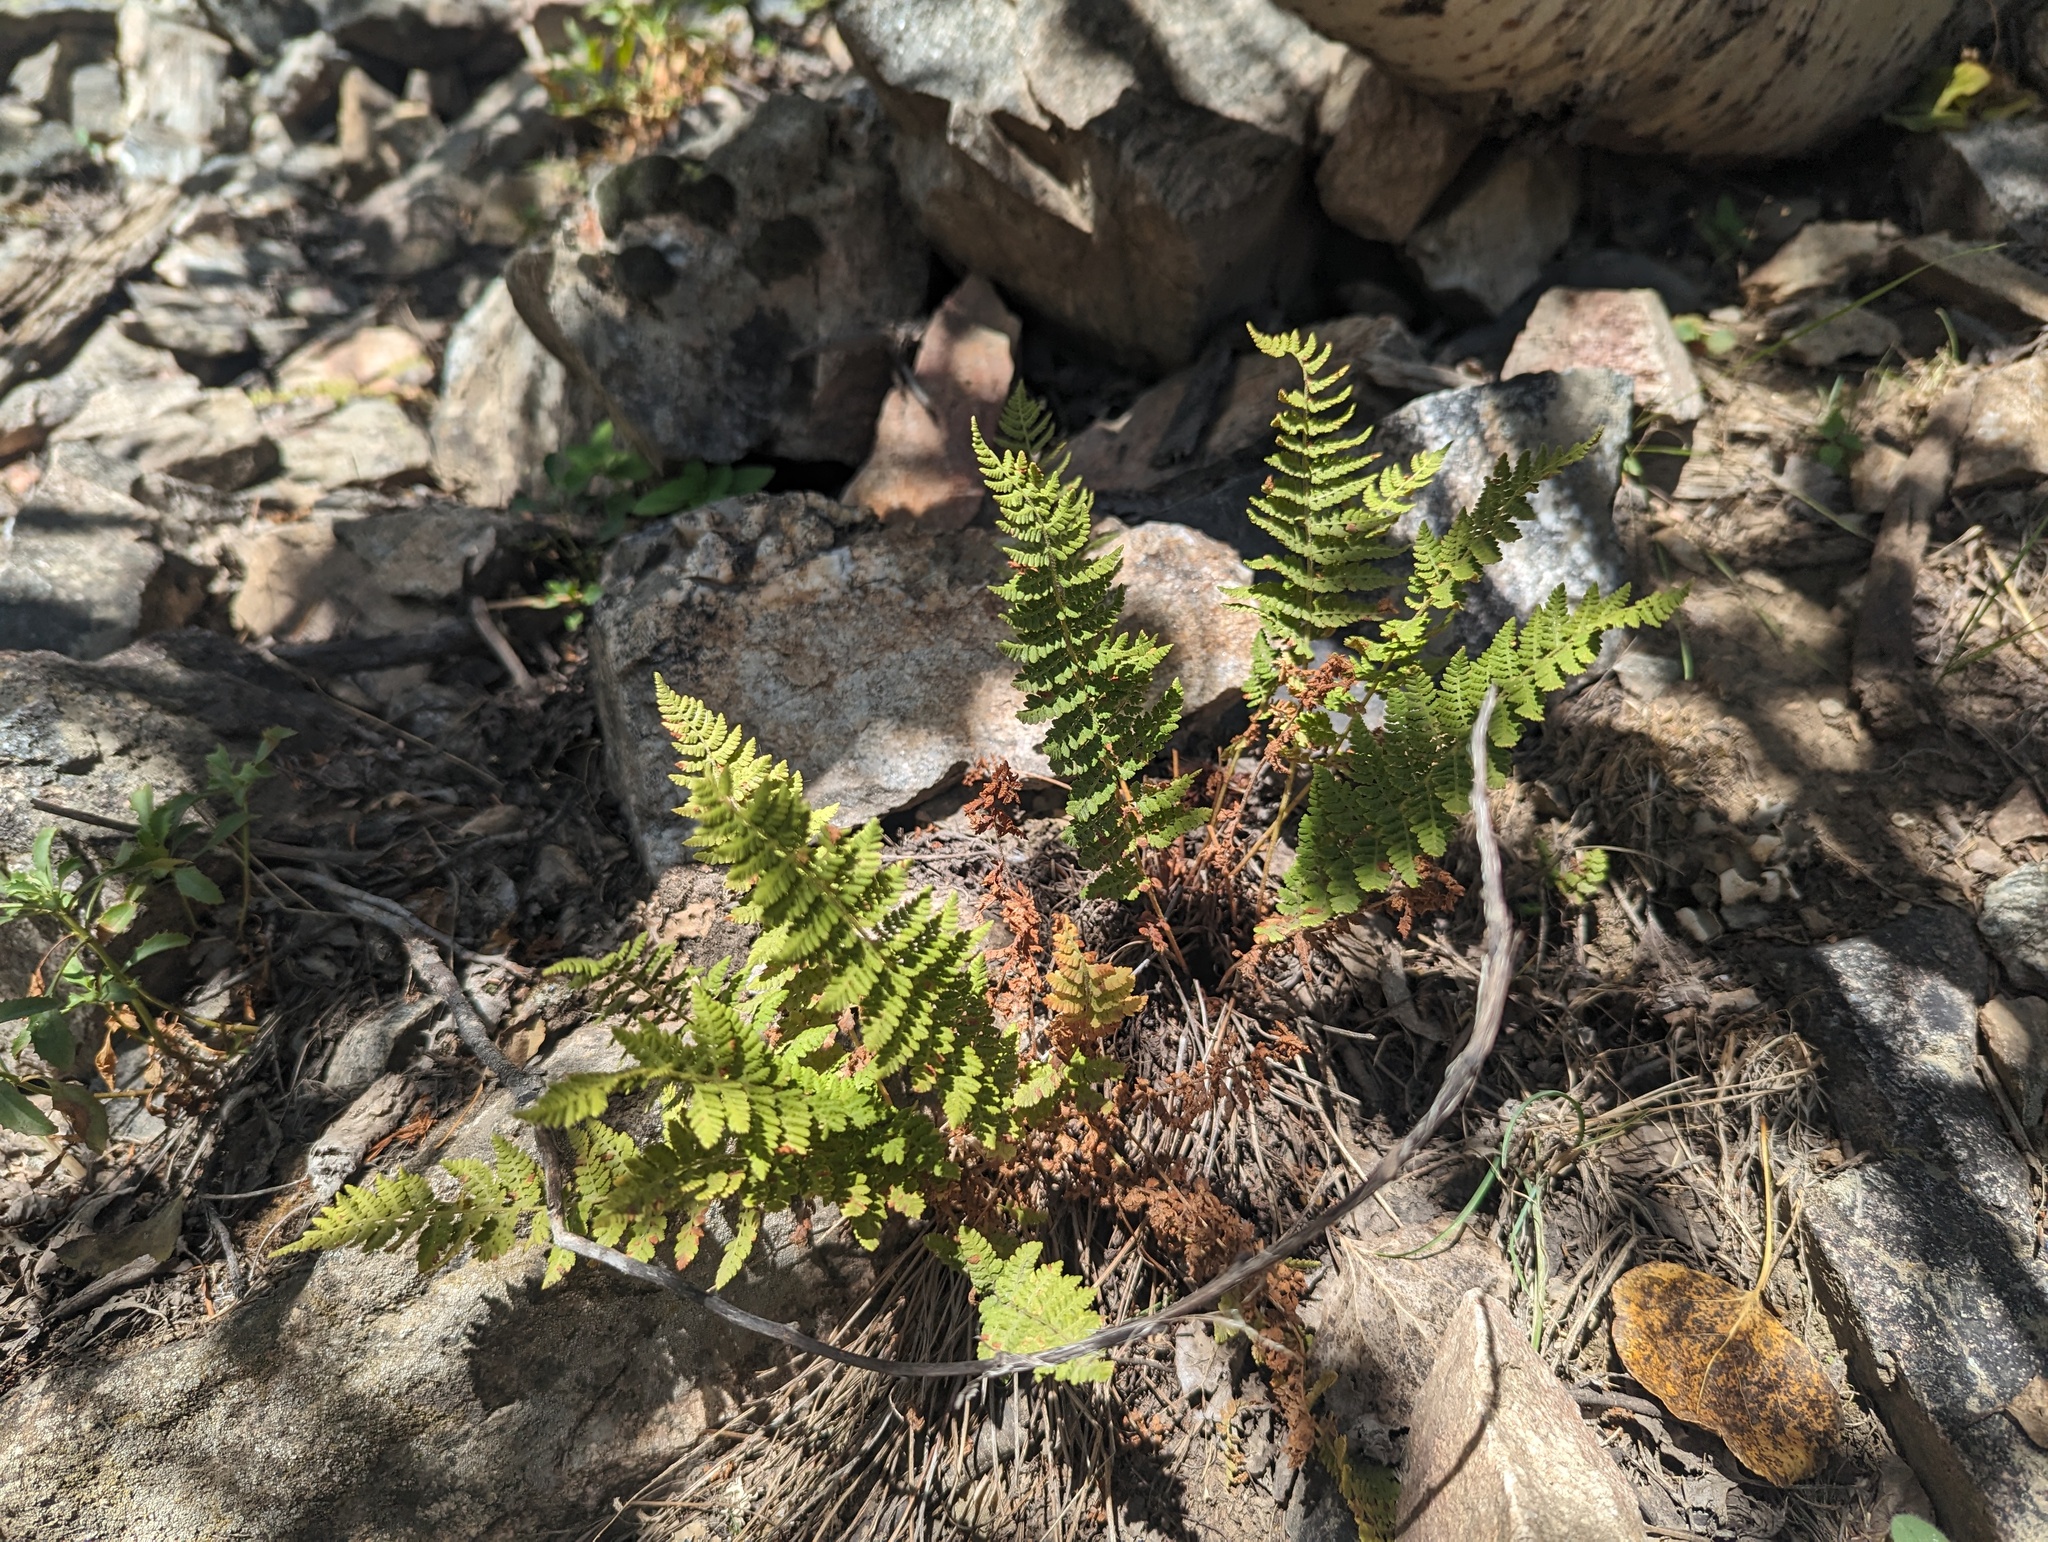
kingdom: Plantae
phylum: Tracheophyta
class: Polypodiopsida
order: Polypodiales
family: Woodsiaceae
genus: Physematium
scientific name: Physematium scopulinum
